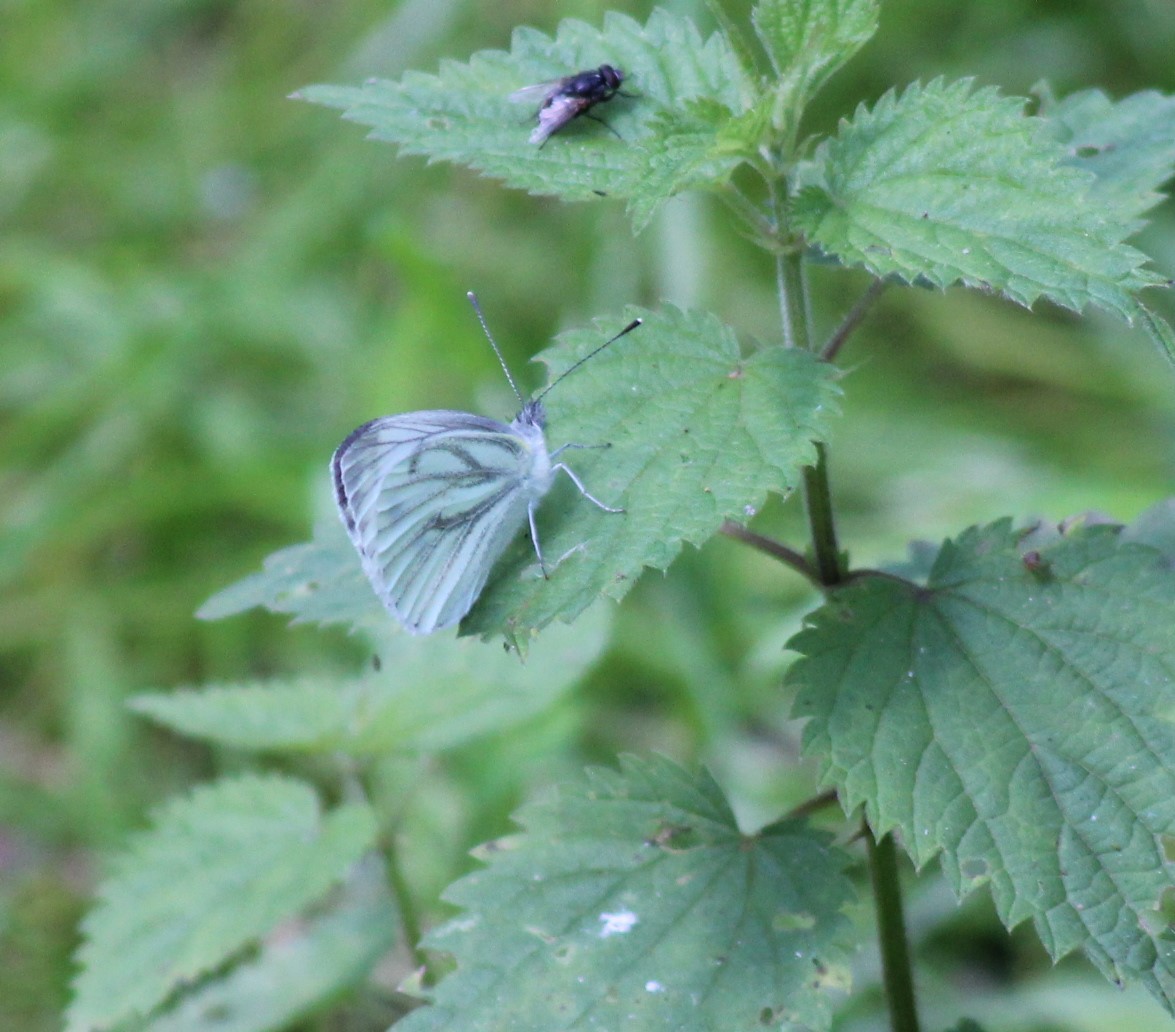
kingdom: Animalia
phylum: Arthropoda
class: Insecta
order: Lepidoptera
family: Pieridae
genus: Pieris
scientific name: Pieris napi
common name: Green-veined white
